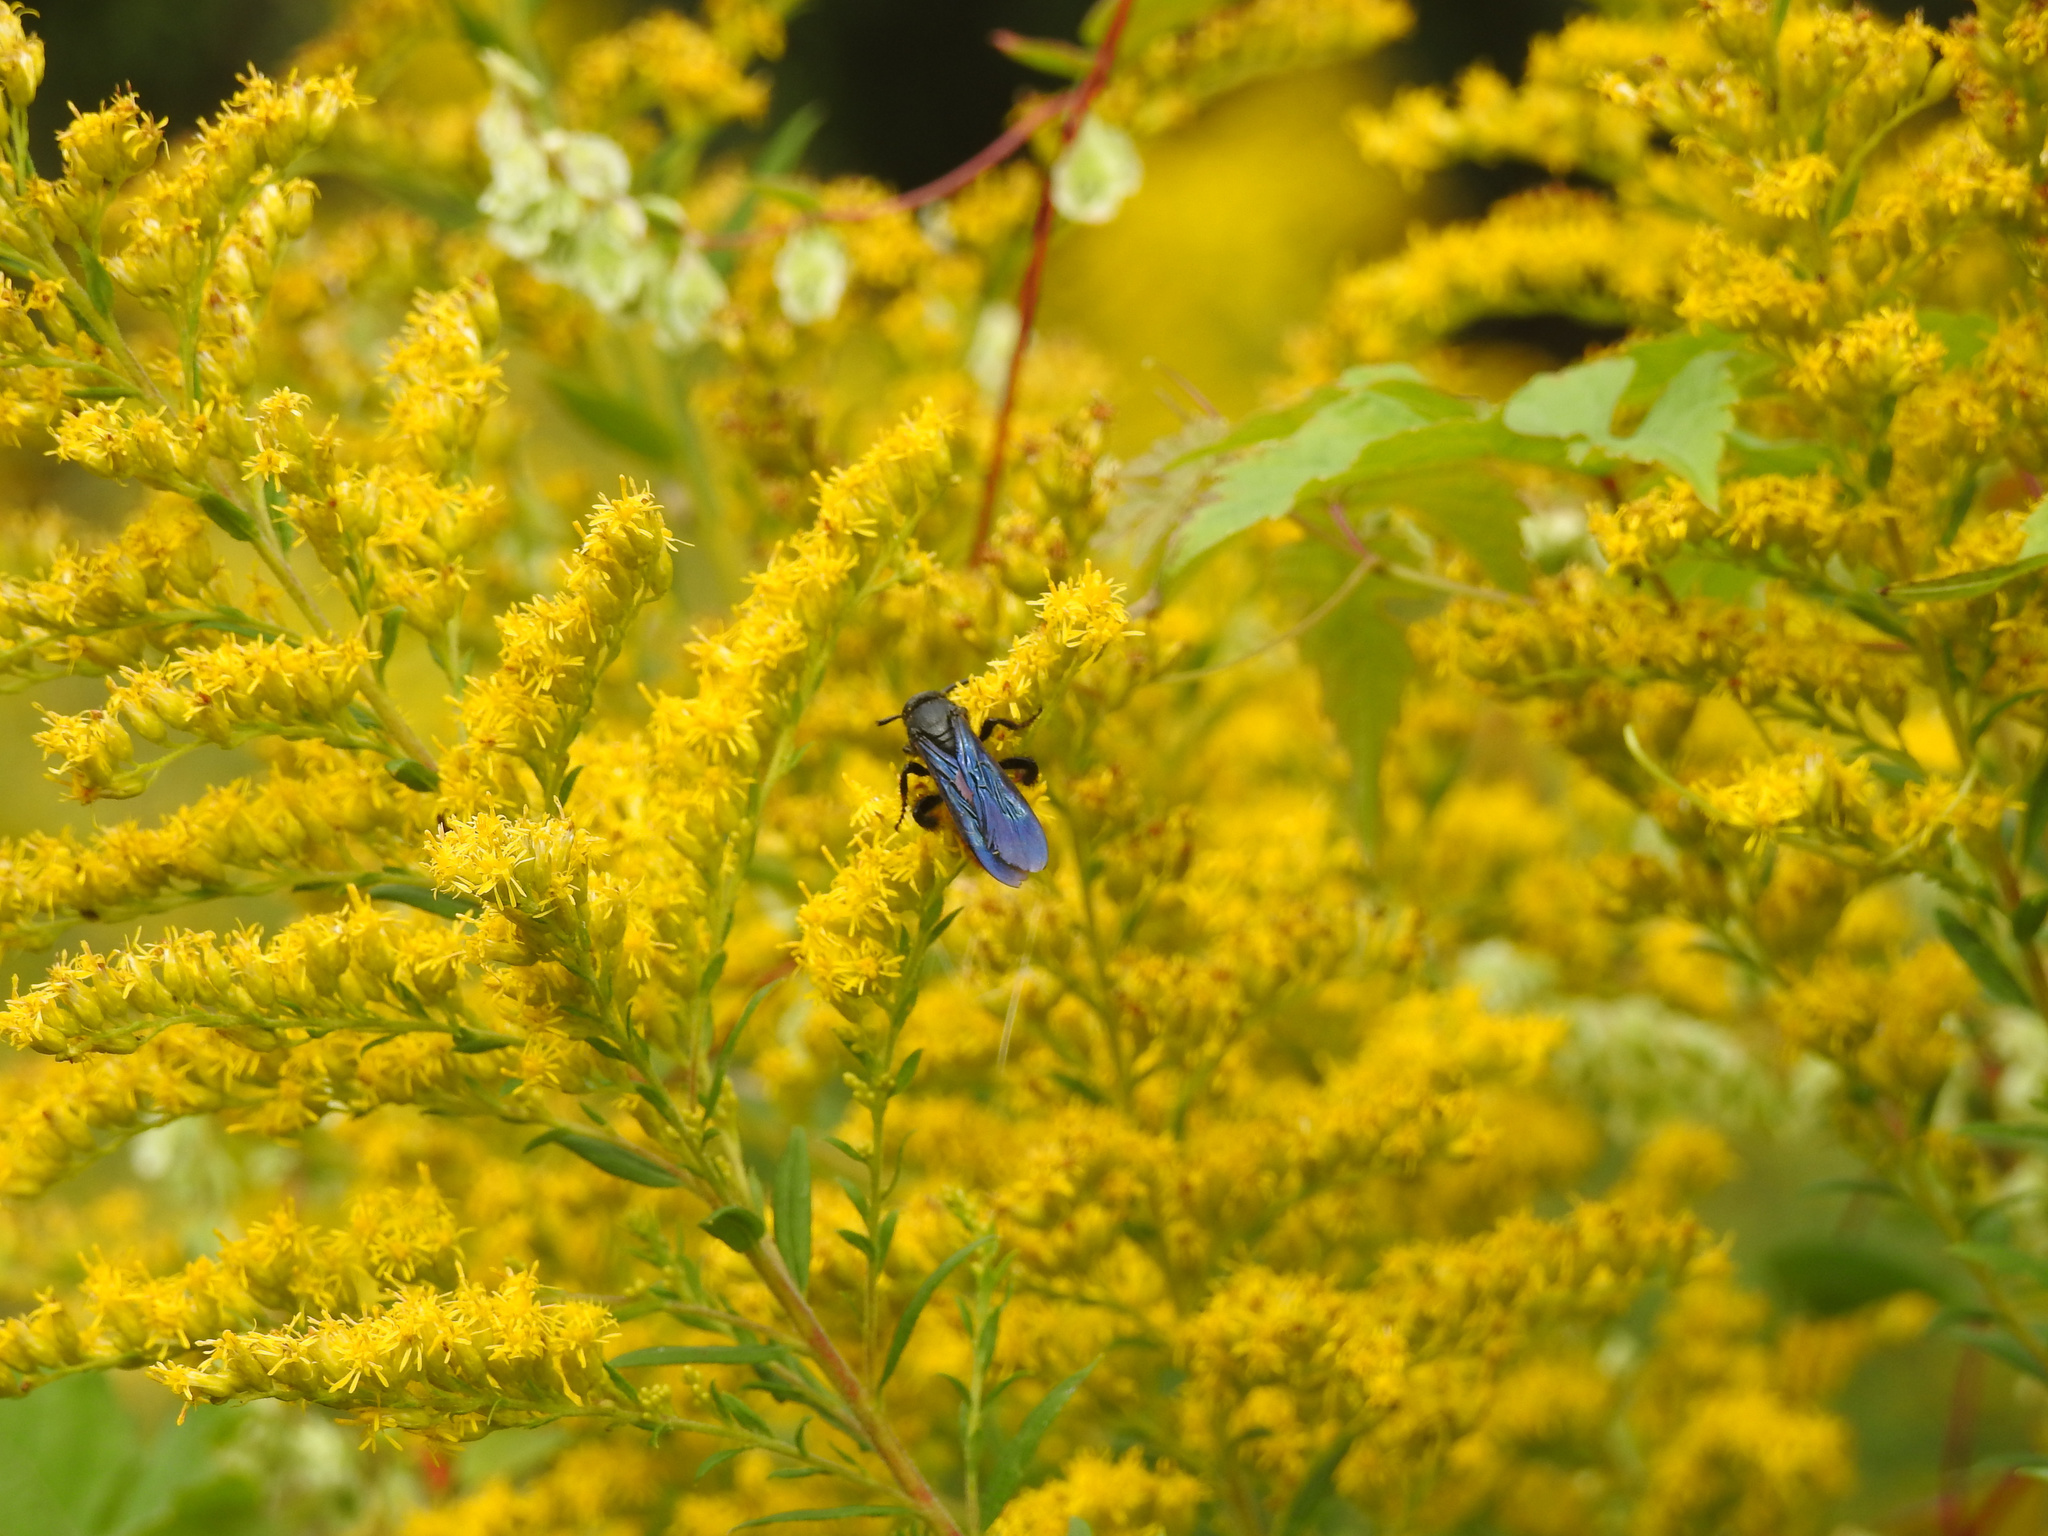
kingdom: Animalia
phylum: Arthropoda
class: Insecta
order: Hymenoptera
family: Scoliidae
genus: Scolia
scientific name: Scolia dubia
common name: Blue-winged scoliid wasp
